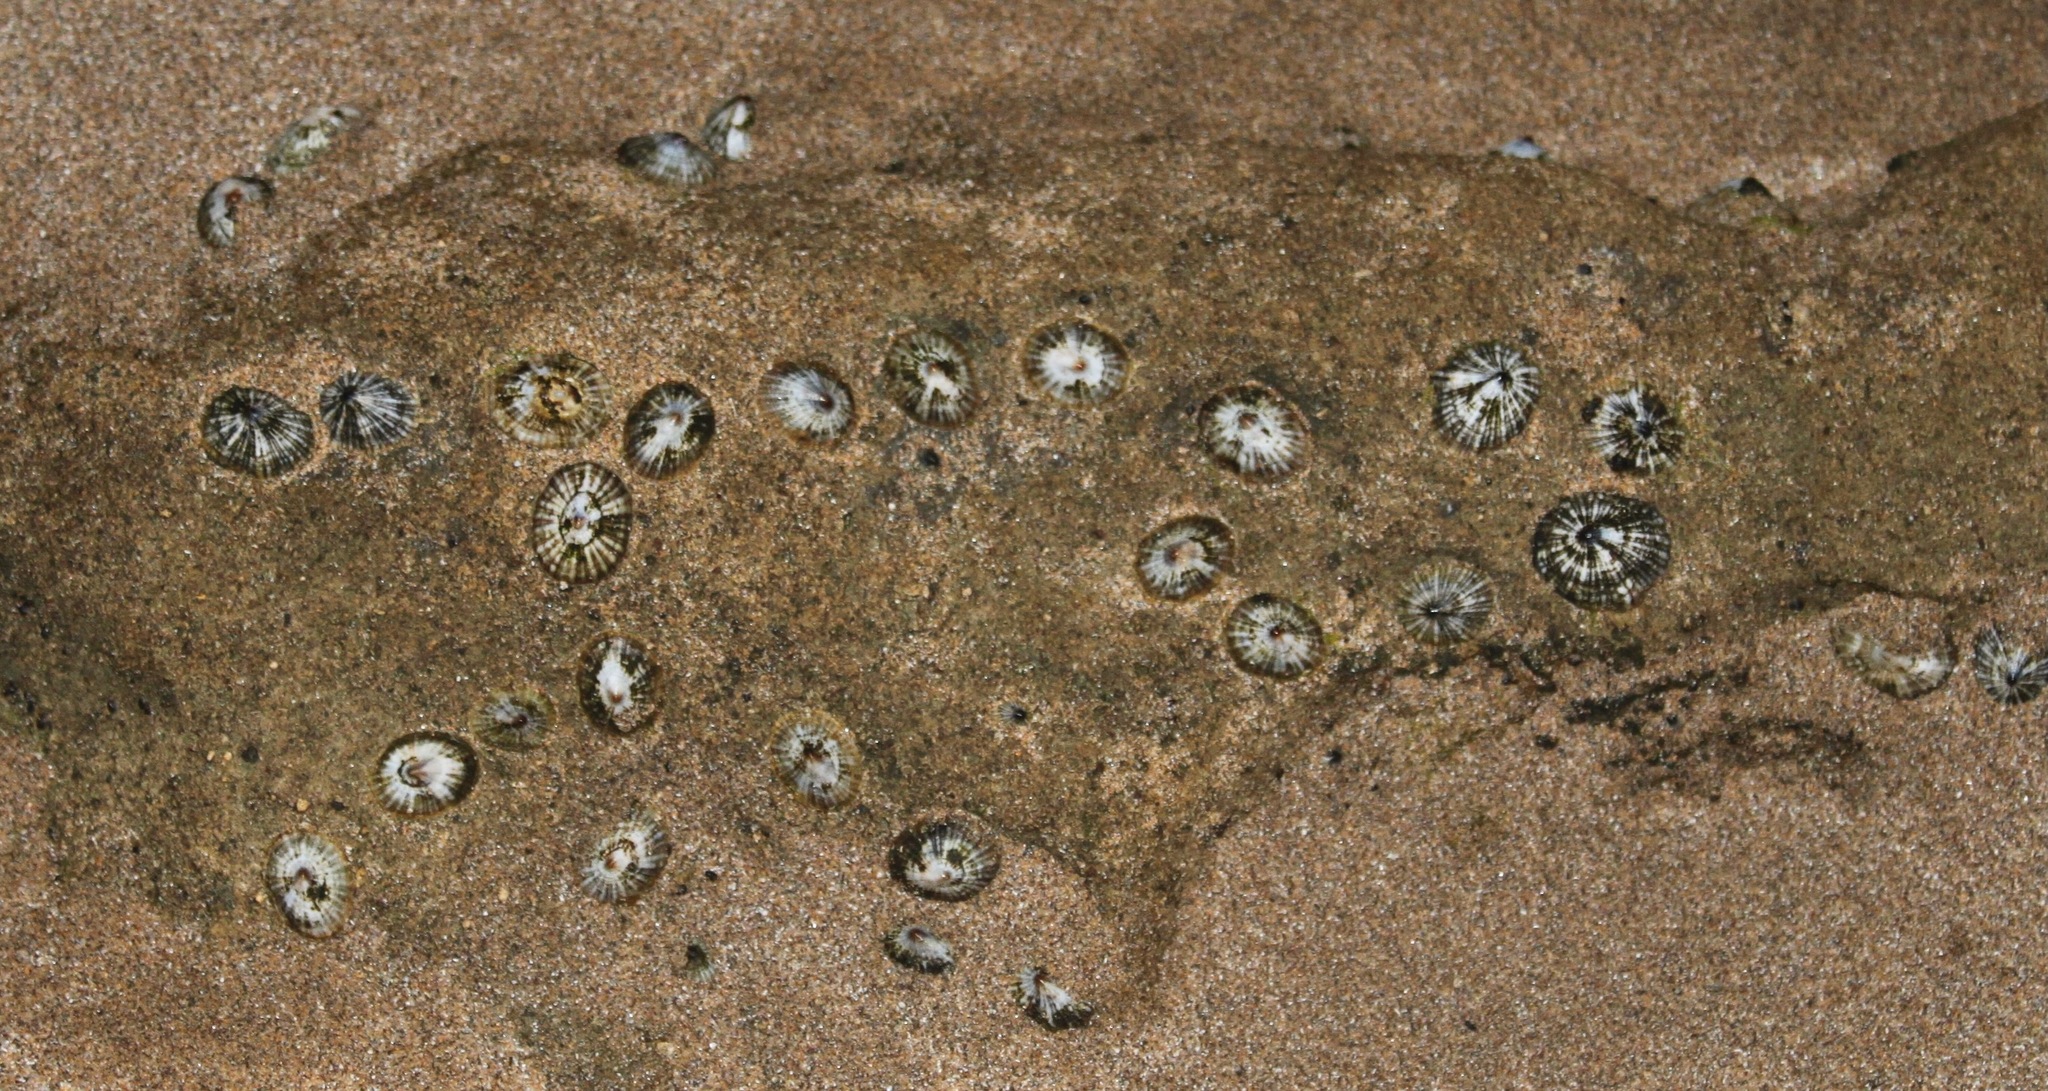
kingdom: Animalia
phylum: Mollusca
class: Gastropoda
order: Siphonariida
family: Siphonariidae
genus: Siphonaria
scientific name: Siphonaria normalis
